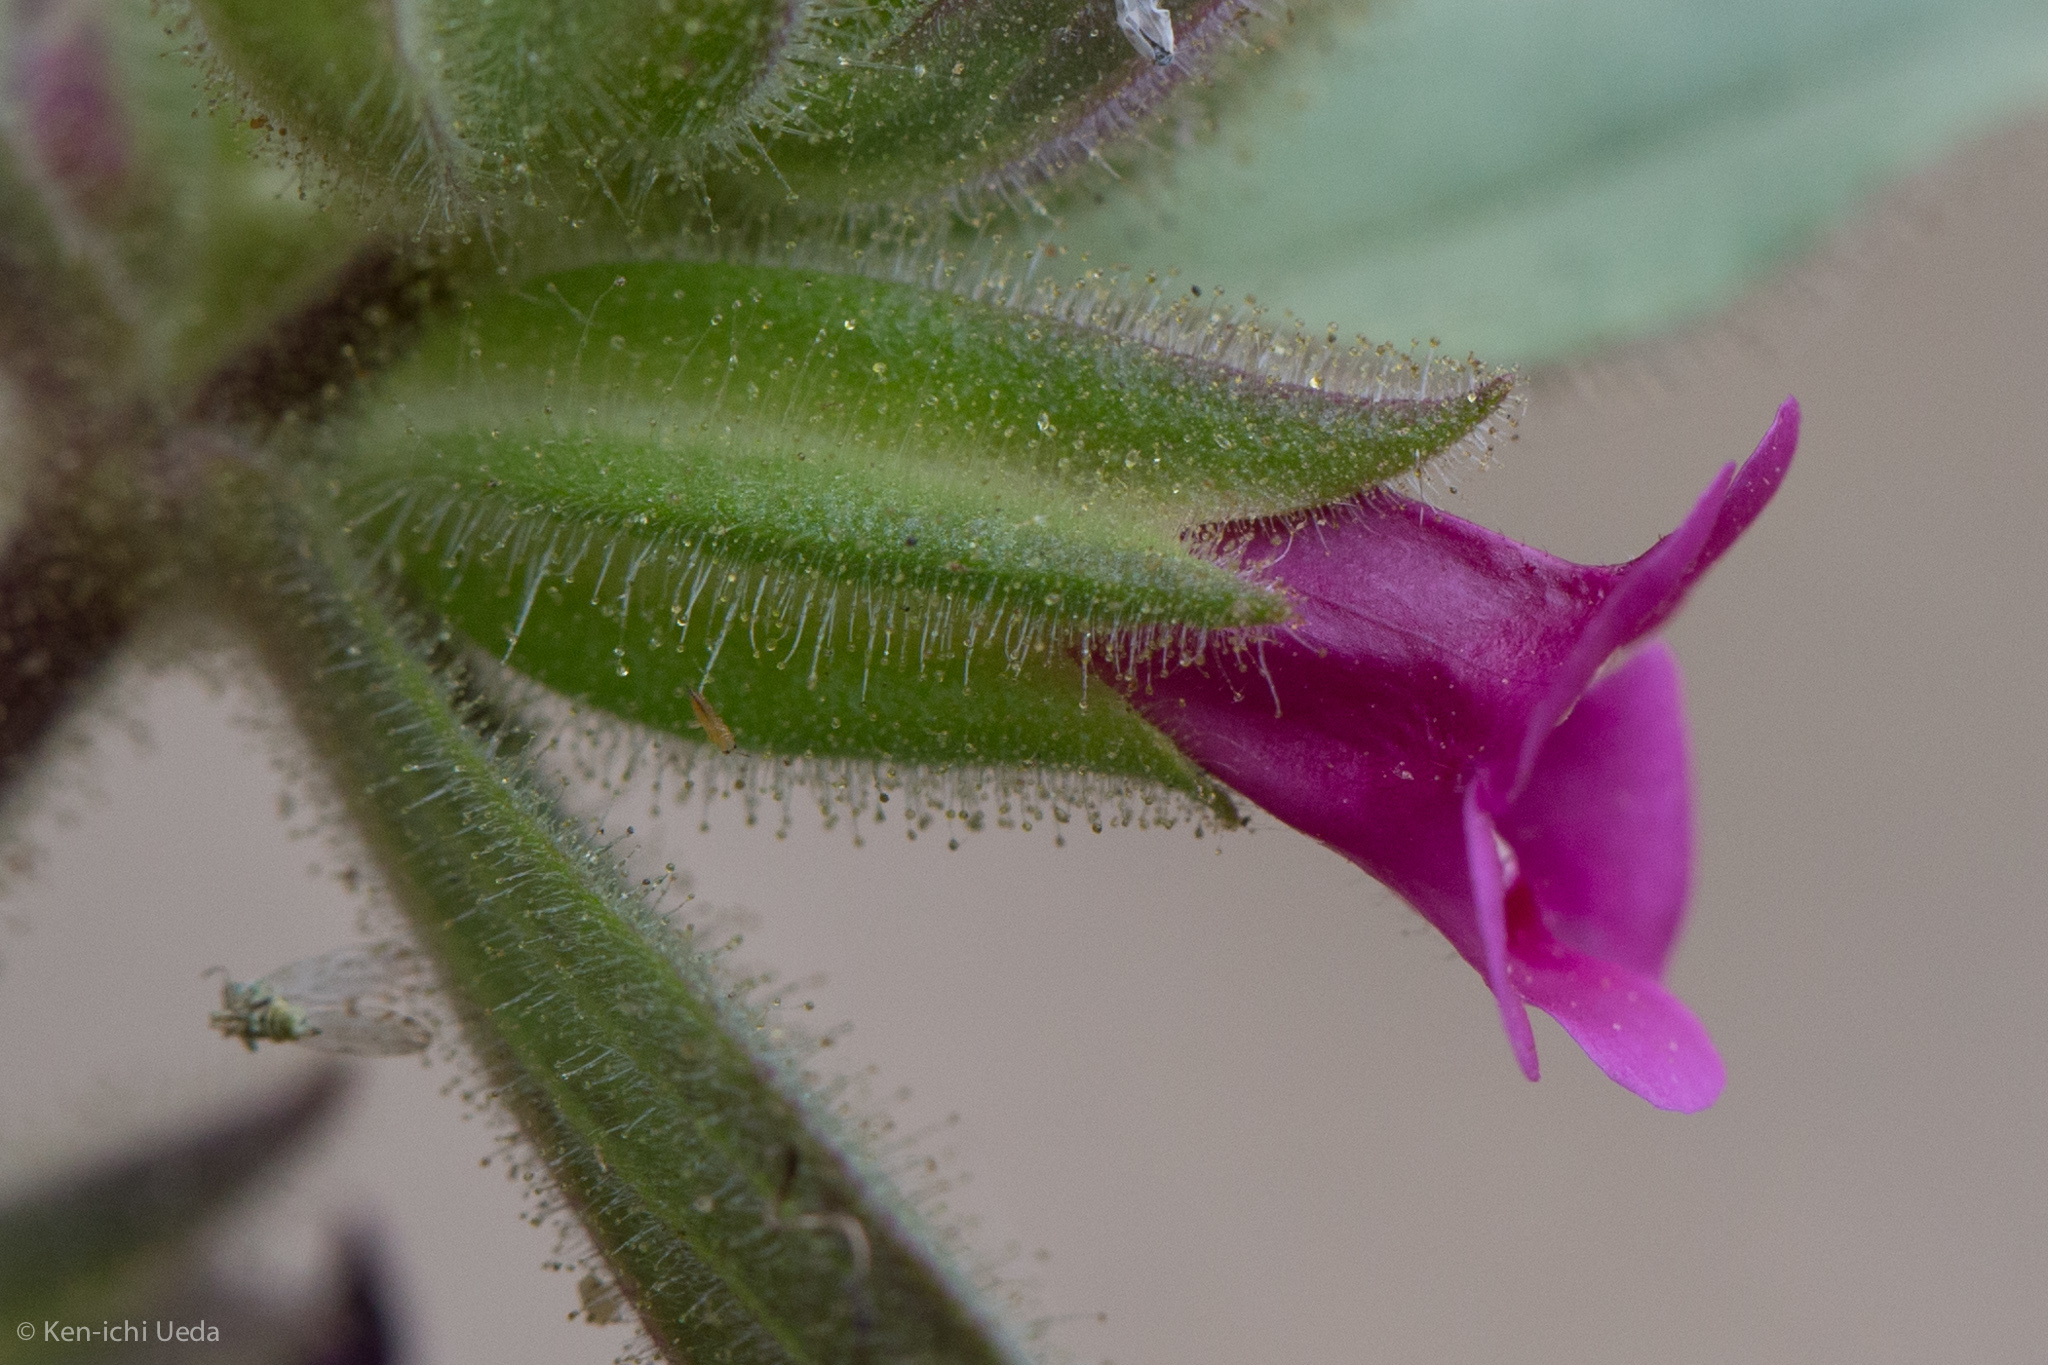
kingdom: Plantae
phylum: Tracheophyta
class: Magnoliopsida
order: Lamiales
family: Phrymaceae
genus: Diplacus
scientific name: Diplacus bolanderi
